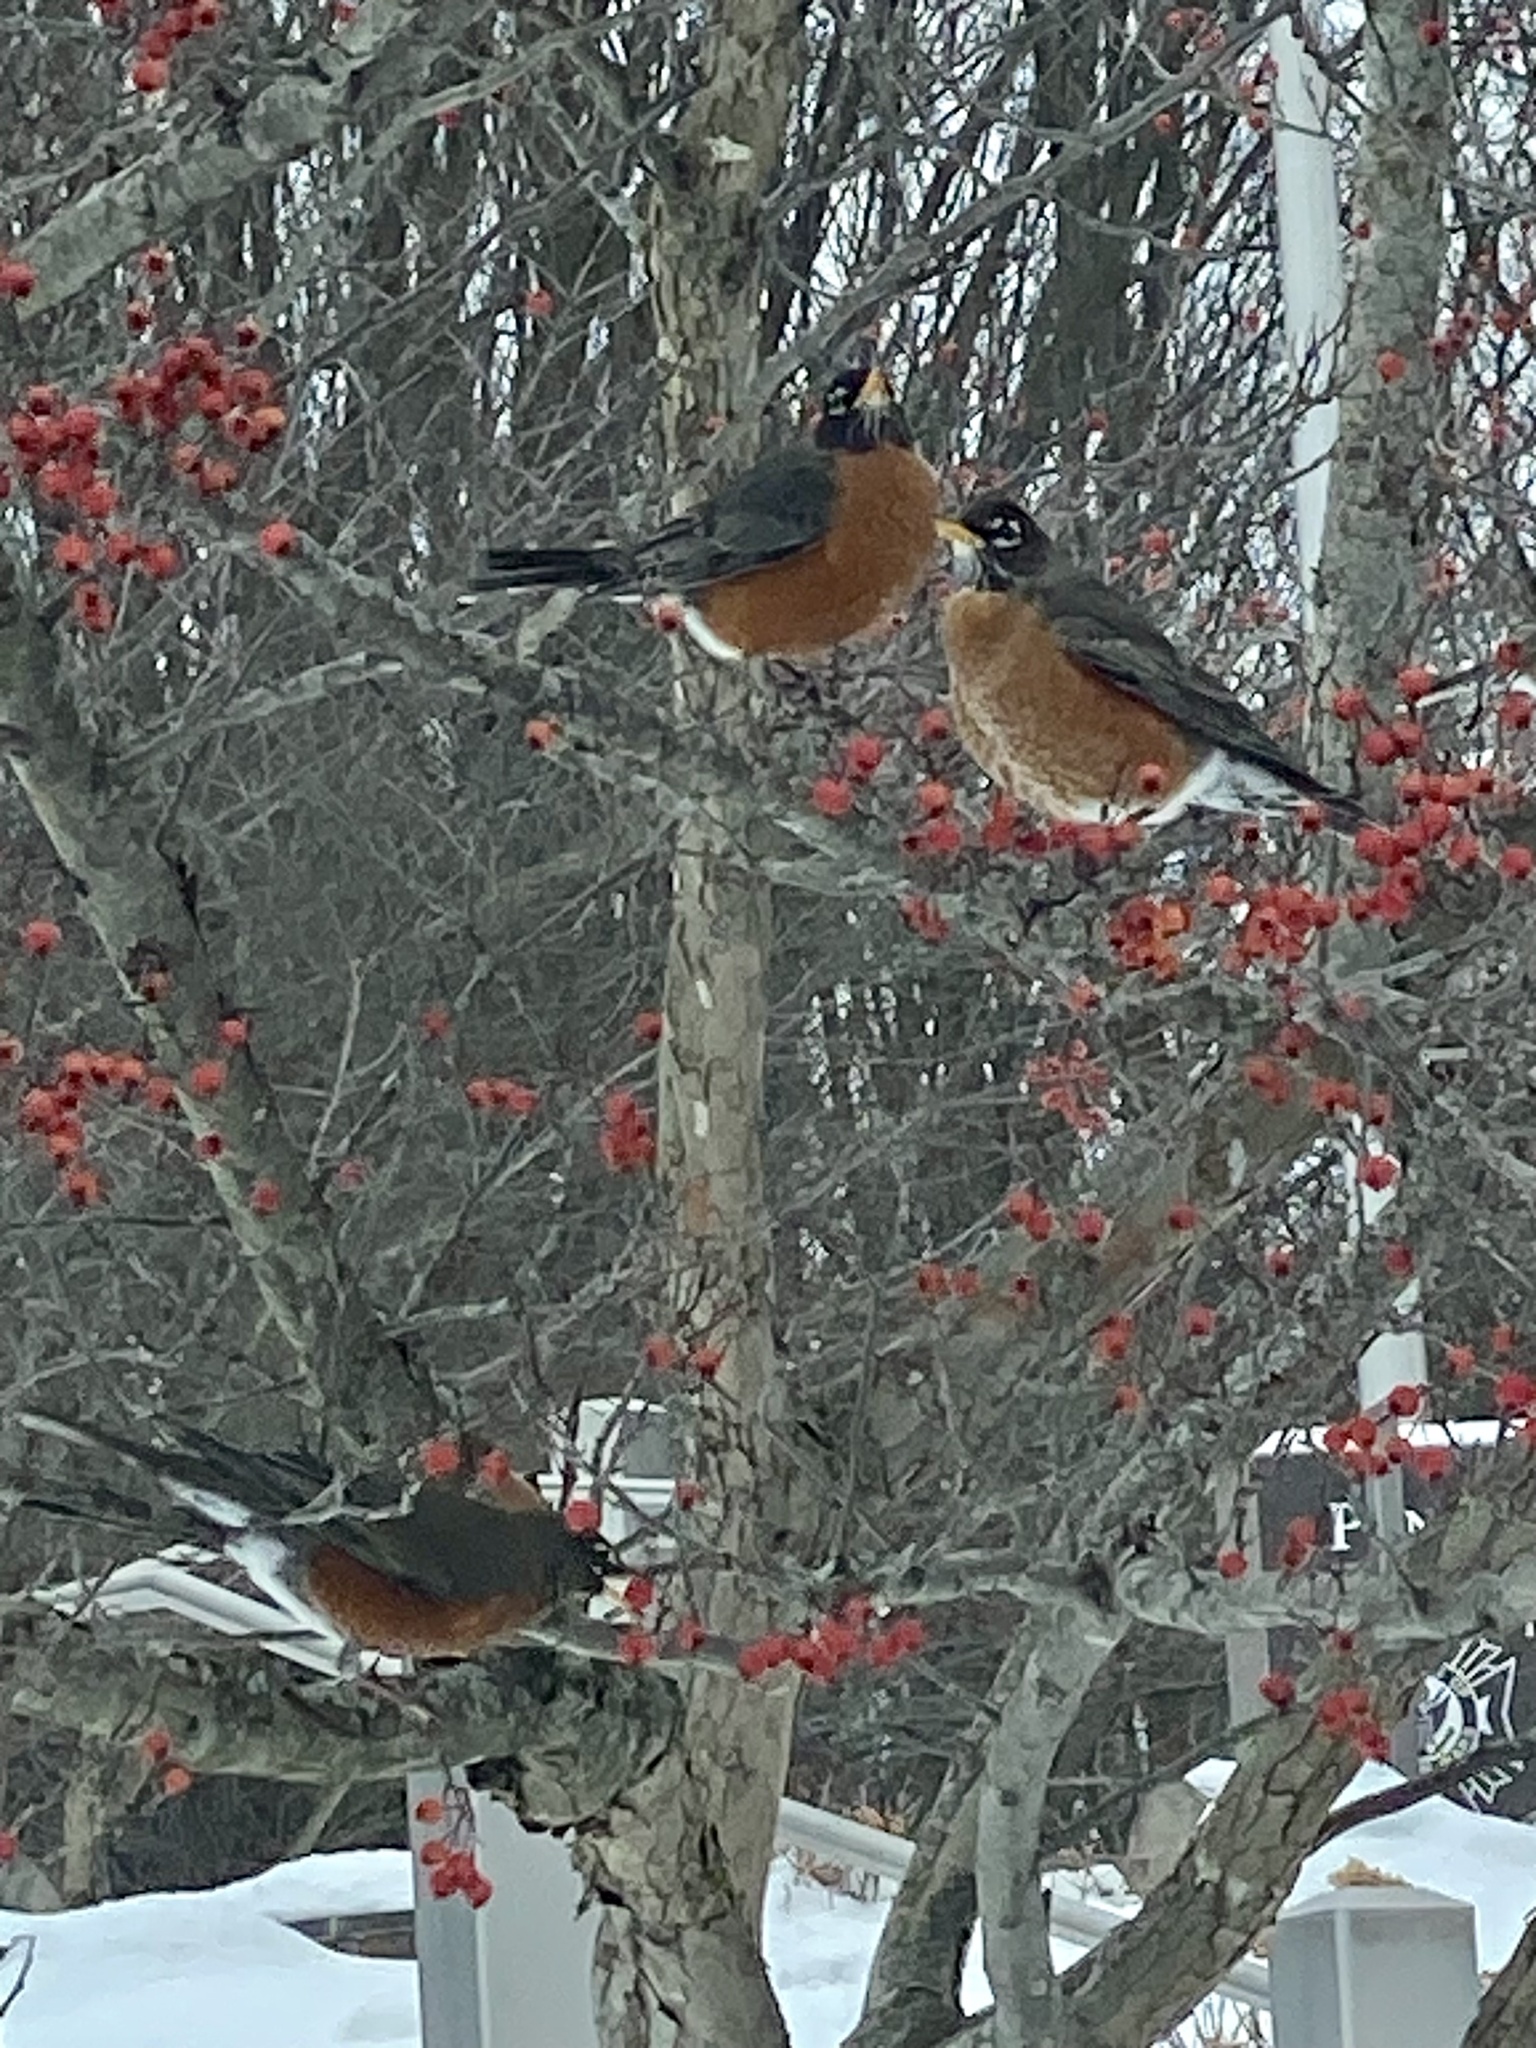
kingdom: Animalia
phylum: Chordata
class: Aves
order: Passeriformes
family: Turdidae
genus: Turdus
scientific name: Turdus migratorius
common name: American robin
